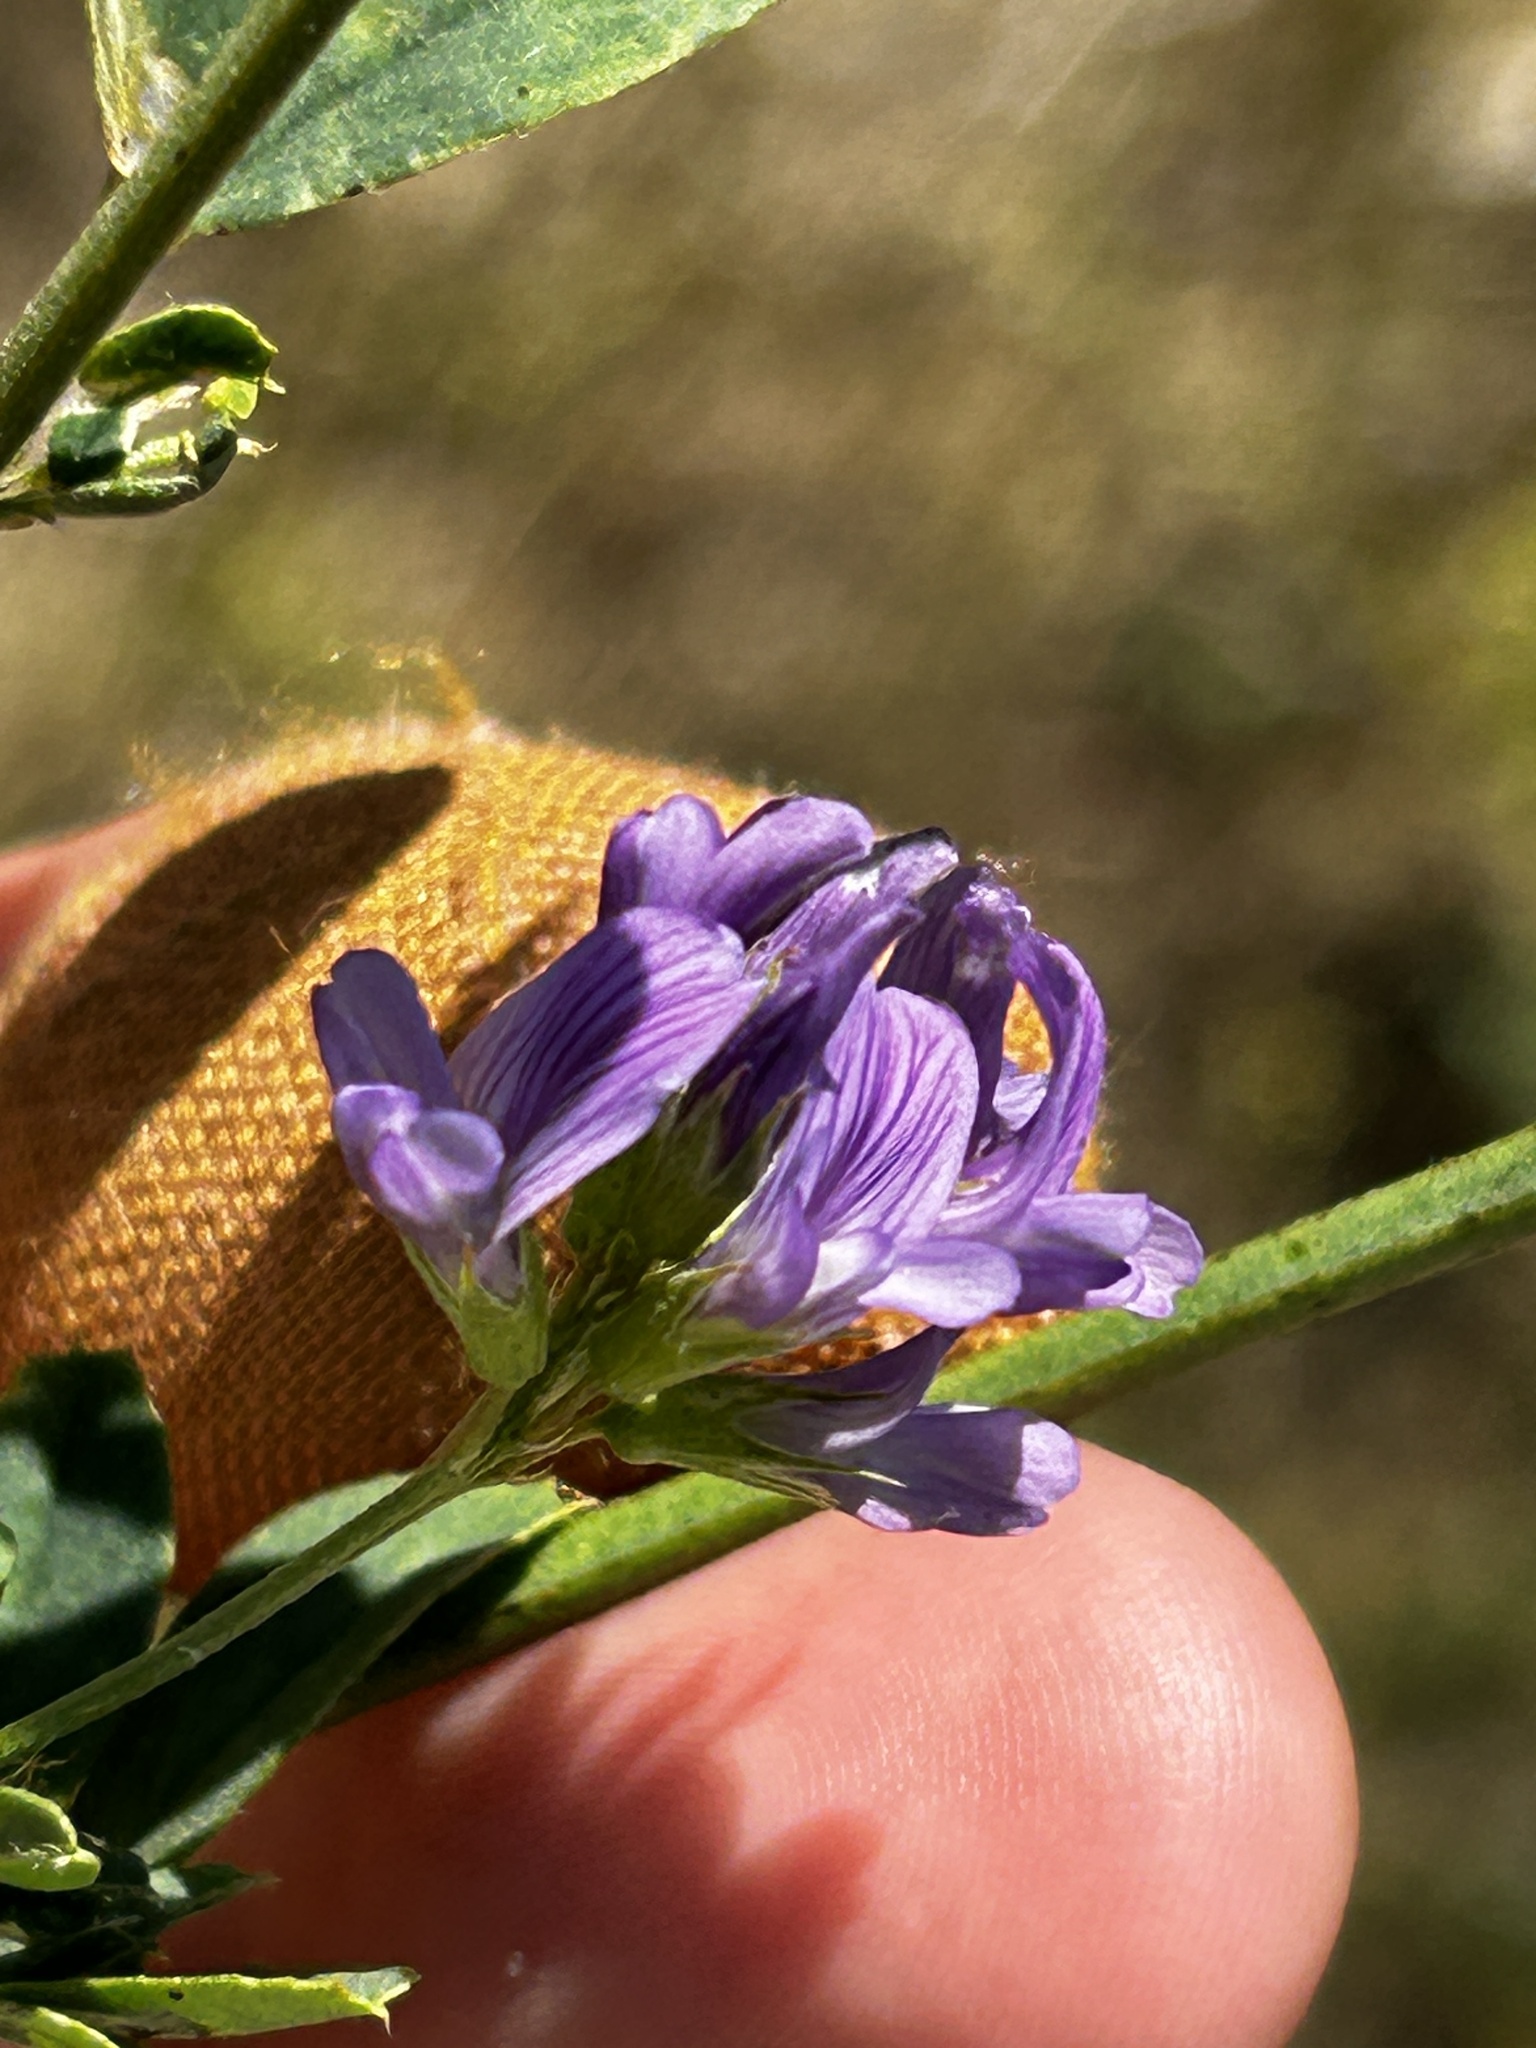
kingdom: Plantae
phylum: Tracheophyta
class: Magnoliopsida
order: Fabales
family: Fabaceae
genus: Medicago
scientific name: Medicago sativa
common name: Alfalfa
